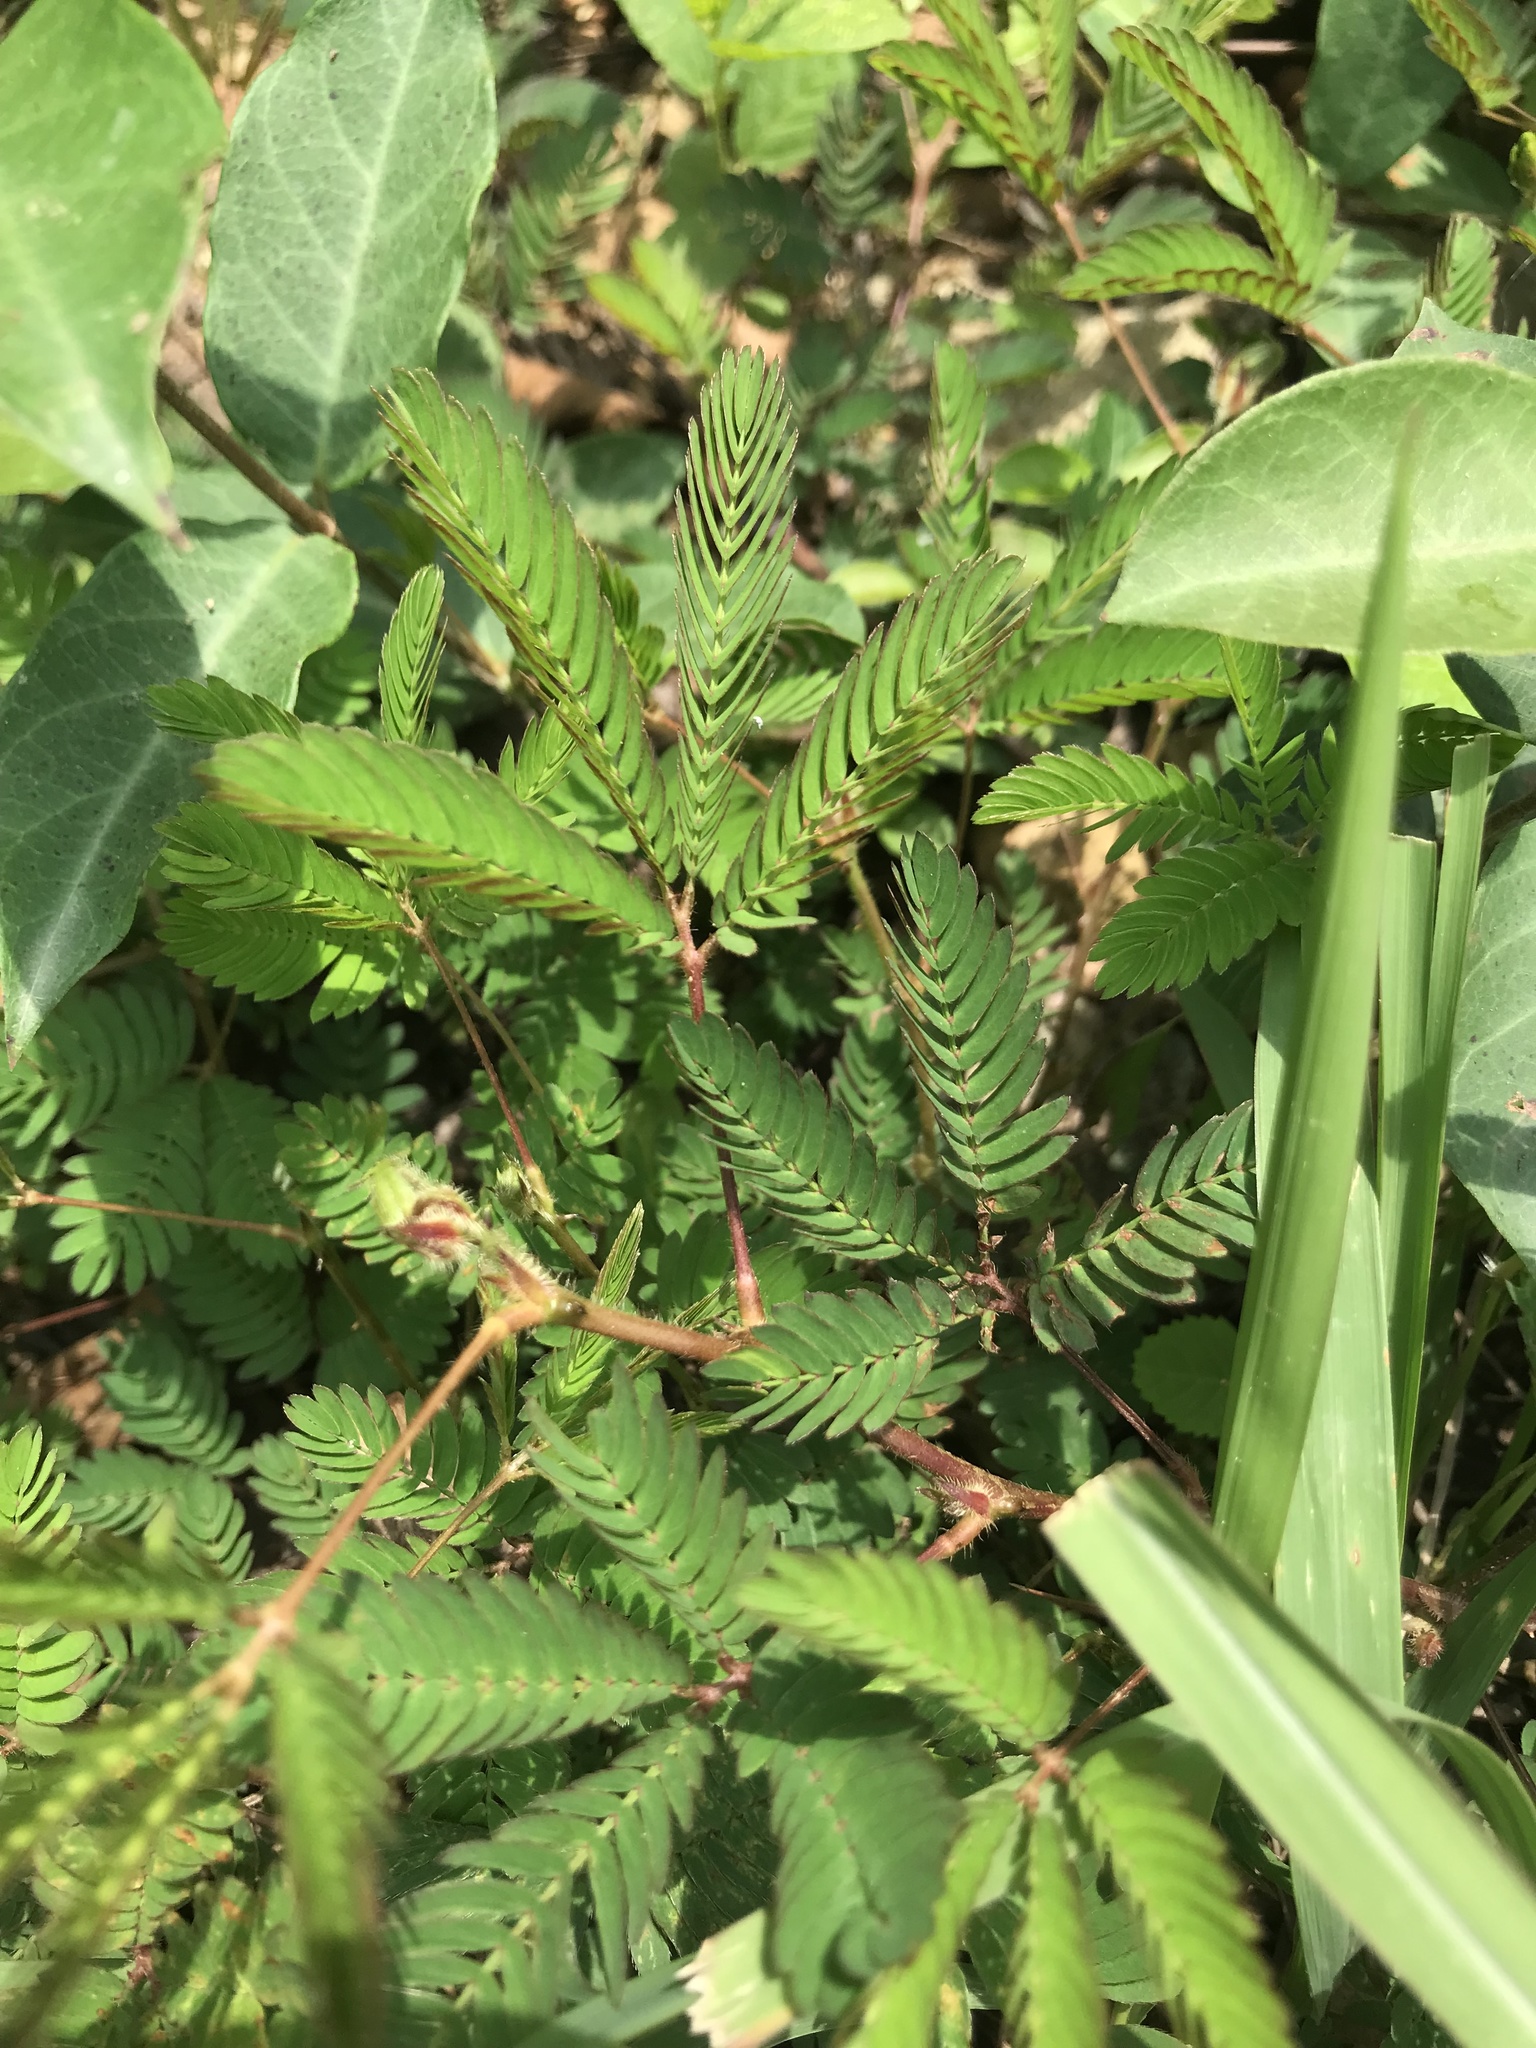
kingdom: Plantae
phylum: Tracheophyta
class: Magnoliopsida
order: Fabales
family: Fabaceae
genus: Mimosa
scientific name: Mimosa pudica
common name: Sensitive plant
